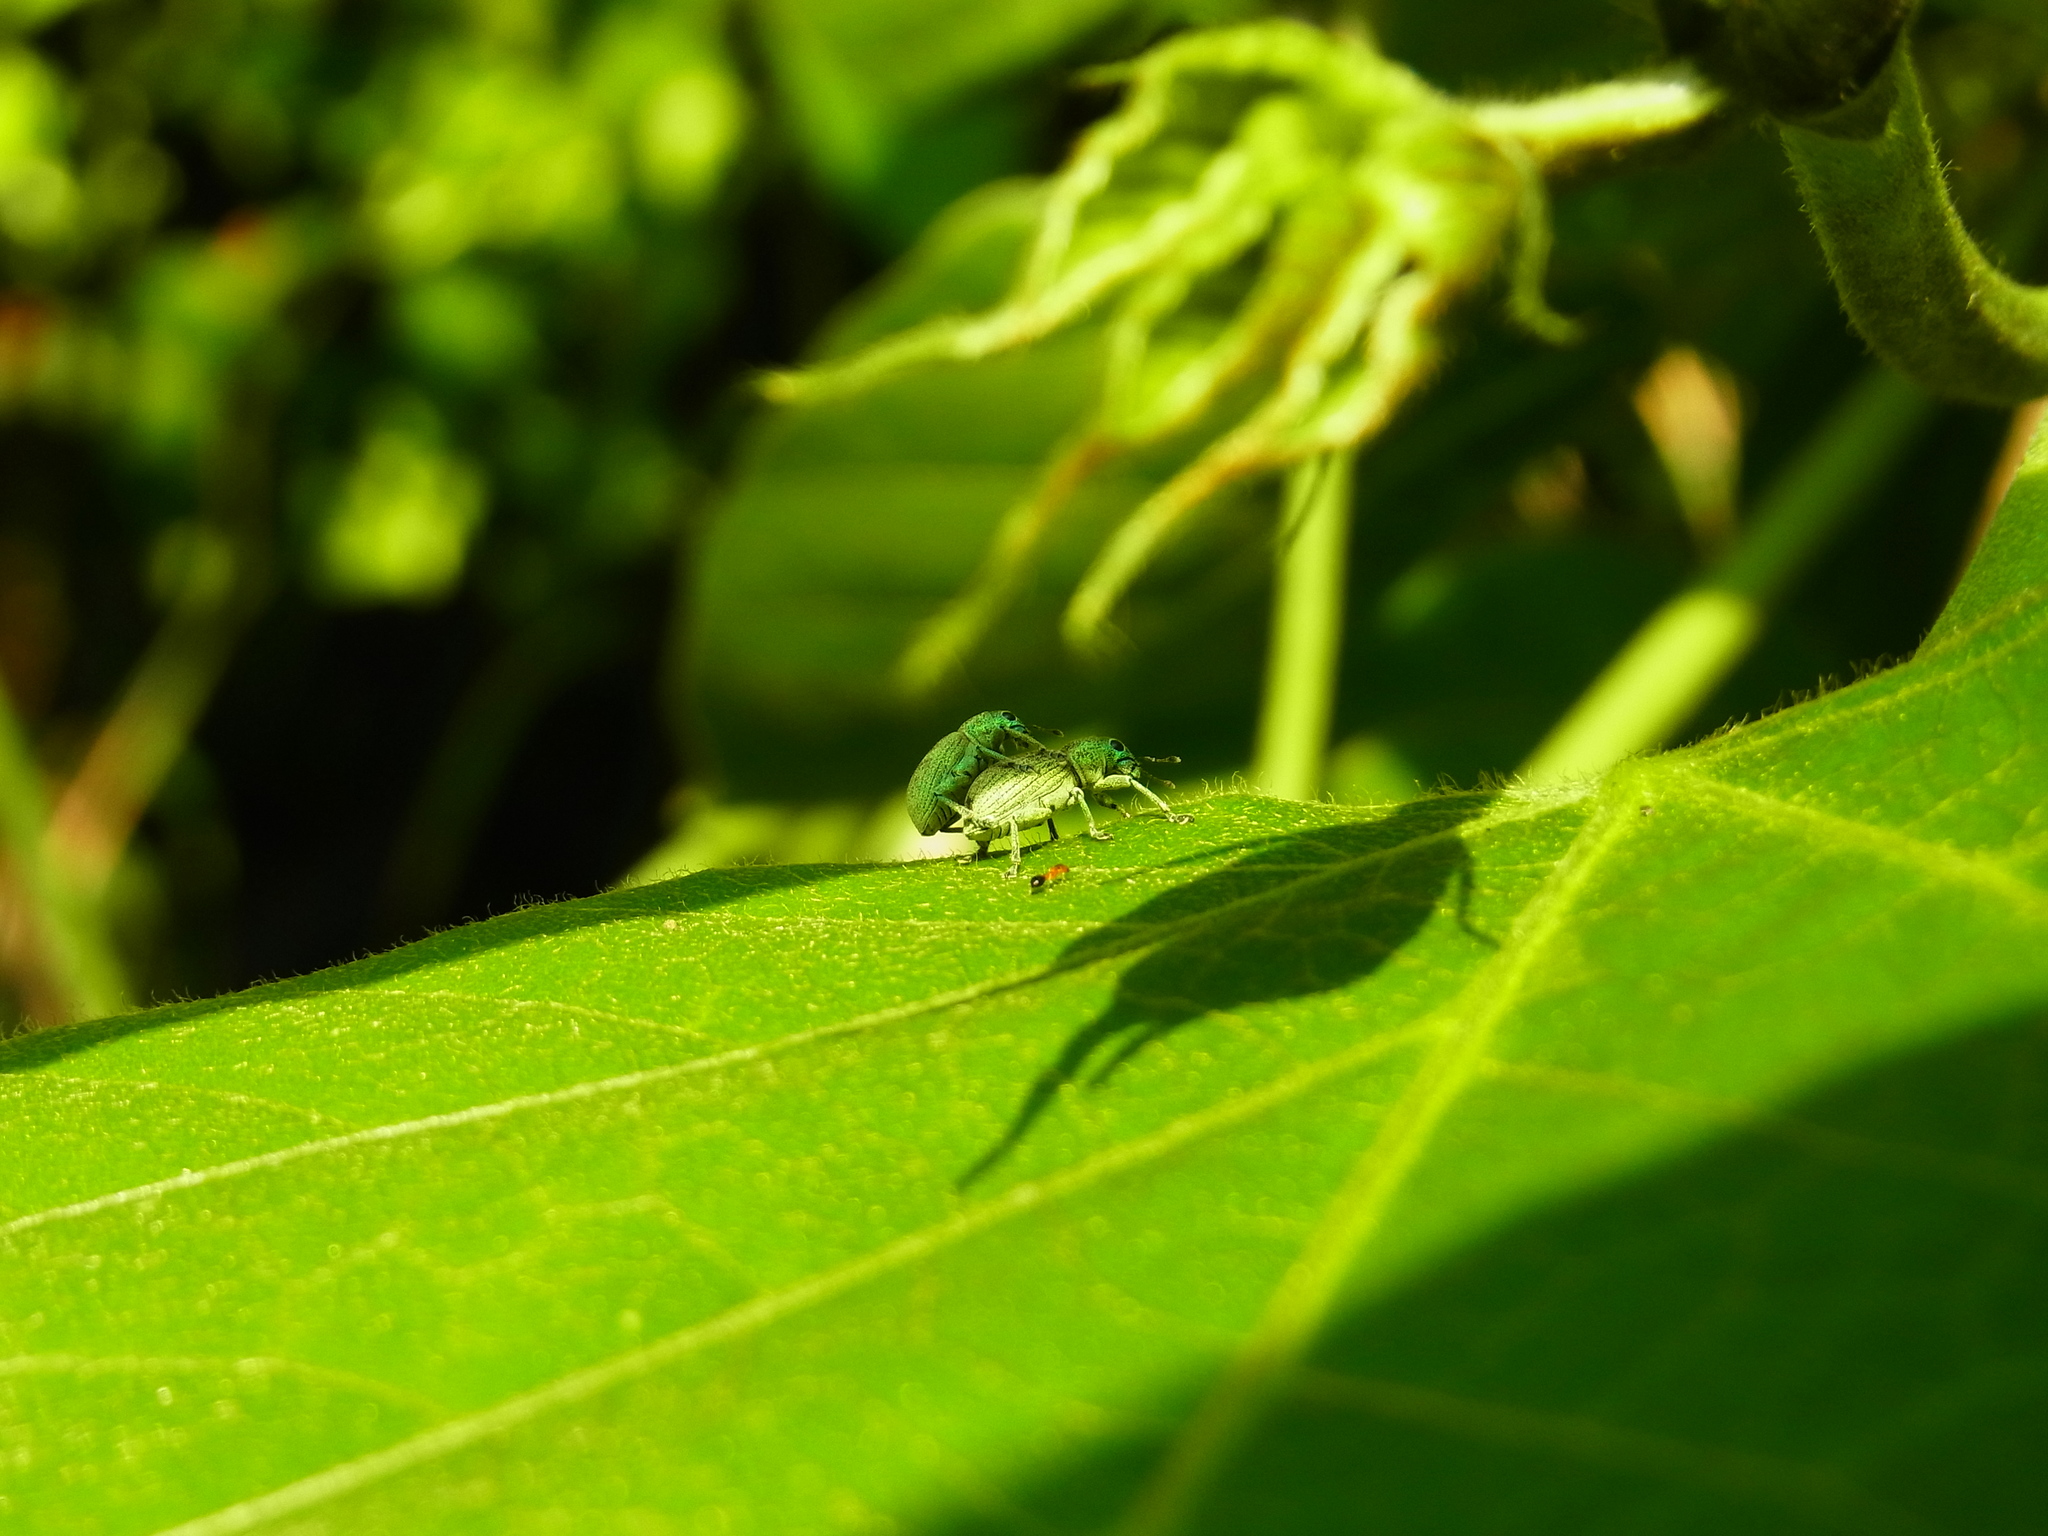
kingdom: Animalia
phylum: Arthropoda
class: Insecta
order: Coleoptera
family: Curculionidae
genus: Eugnathus
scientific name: Eugnathus distinctus
